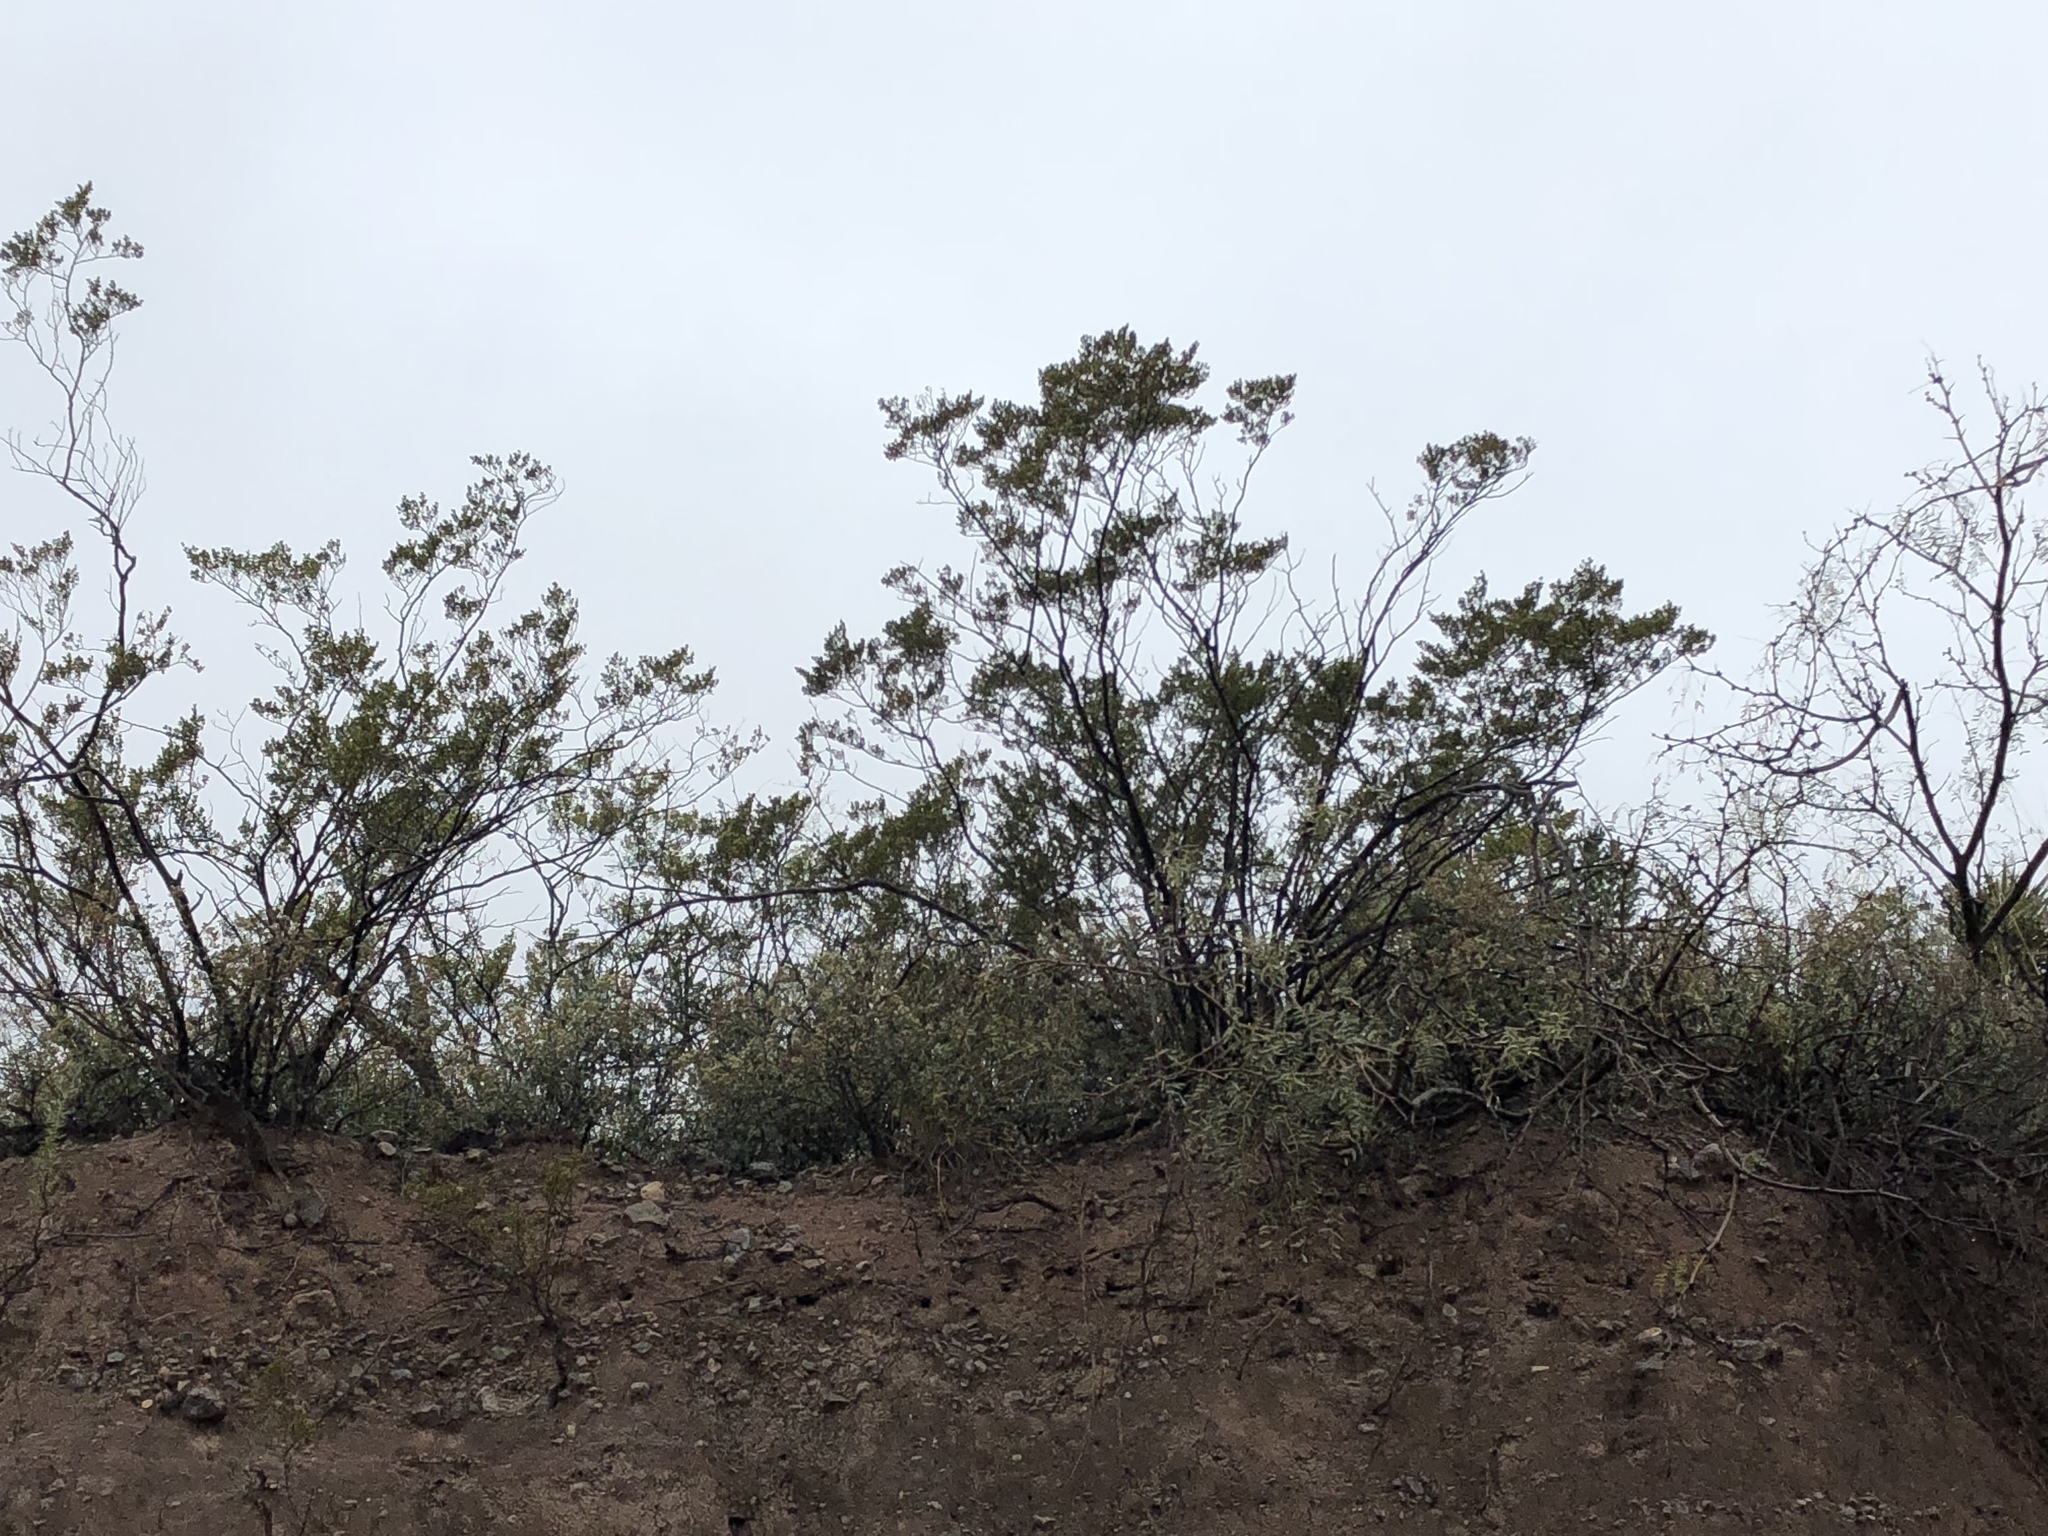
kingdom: Plantae
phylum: Tracheophyta
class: Magnoliopsida
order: Zygophyllales
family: Zygophyllaceae
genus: Larrea
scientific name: Larrea tridentata
